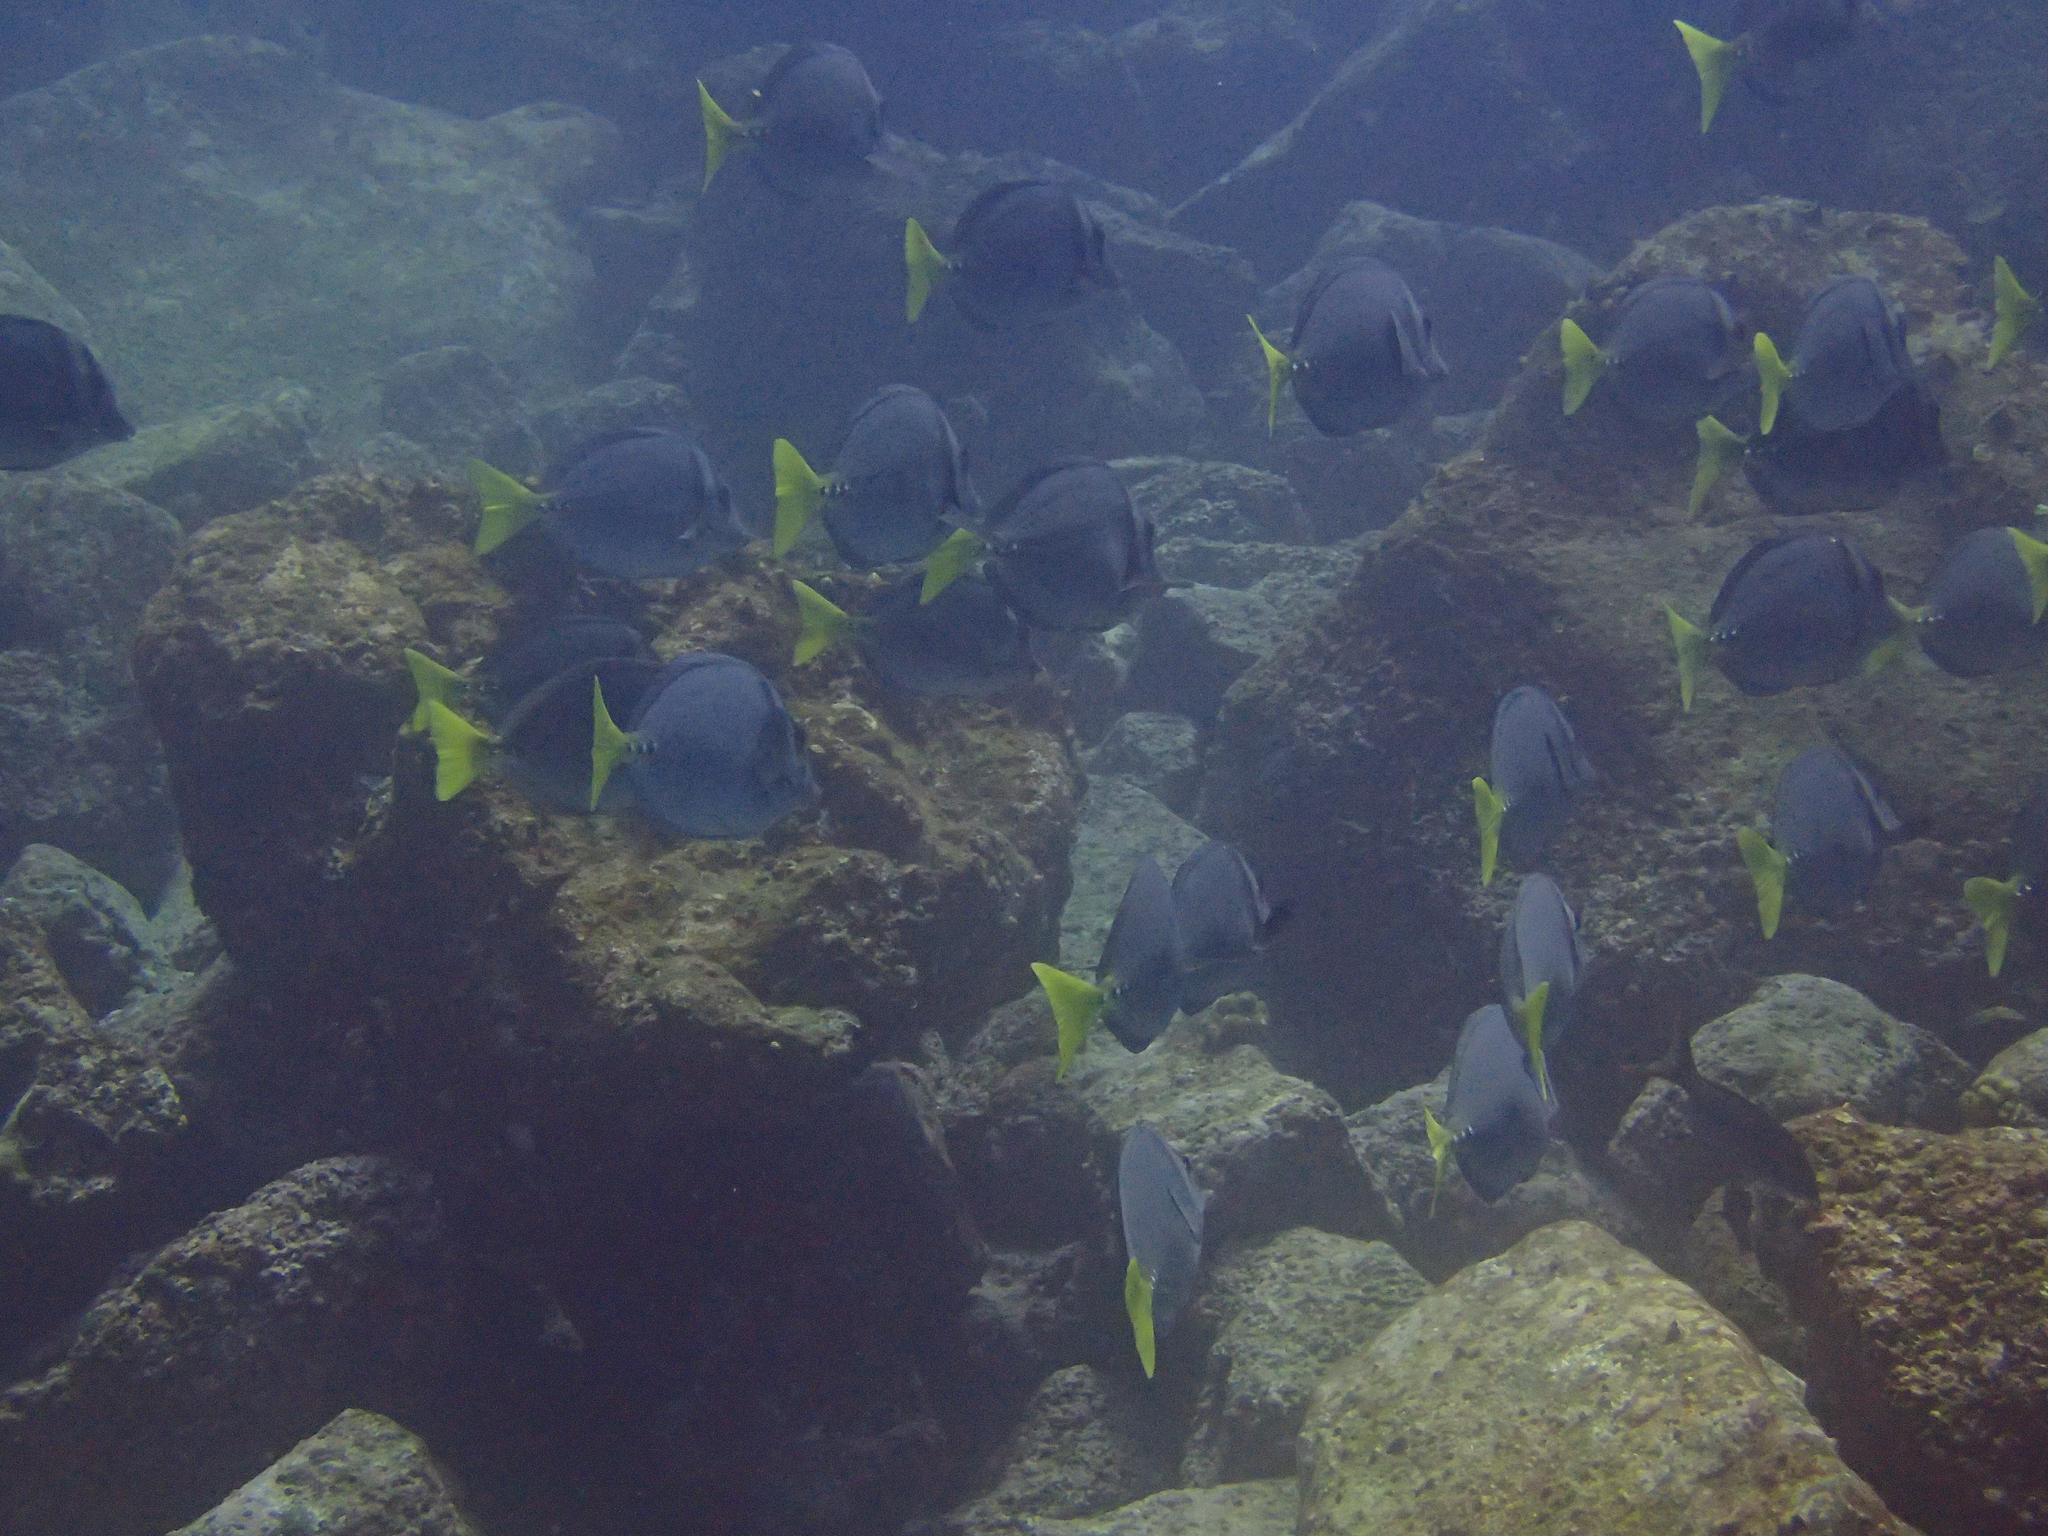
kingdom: Animalia
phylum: Chordata
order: Perciformes
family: Acanthuridae
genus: Prionurus
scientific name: Prionurus laticlavius
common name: Razor surgeonfish
